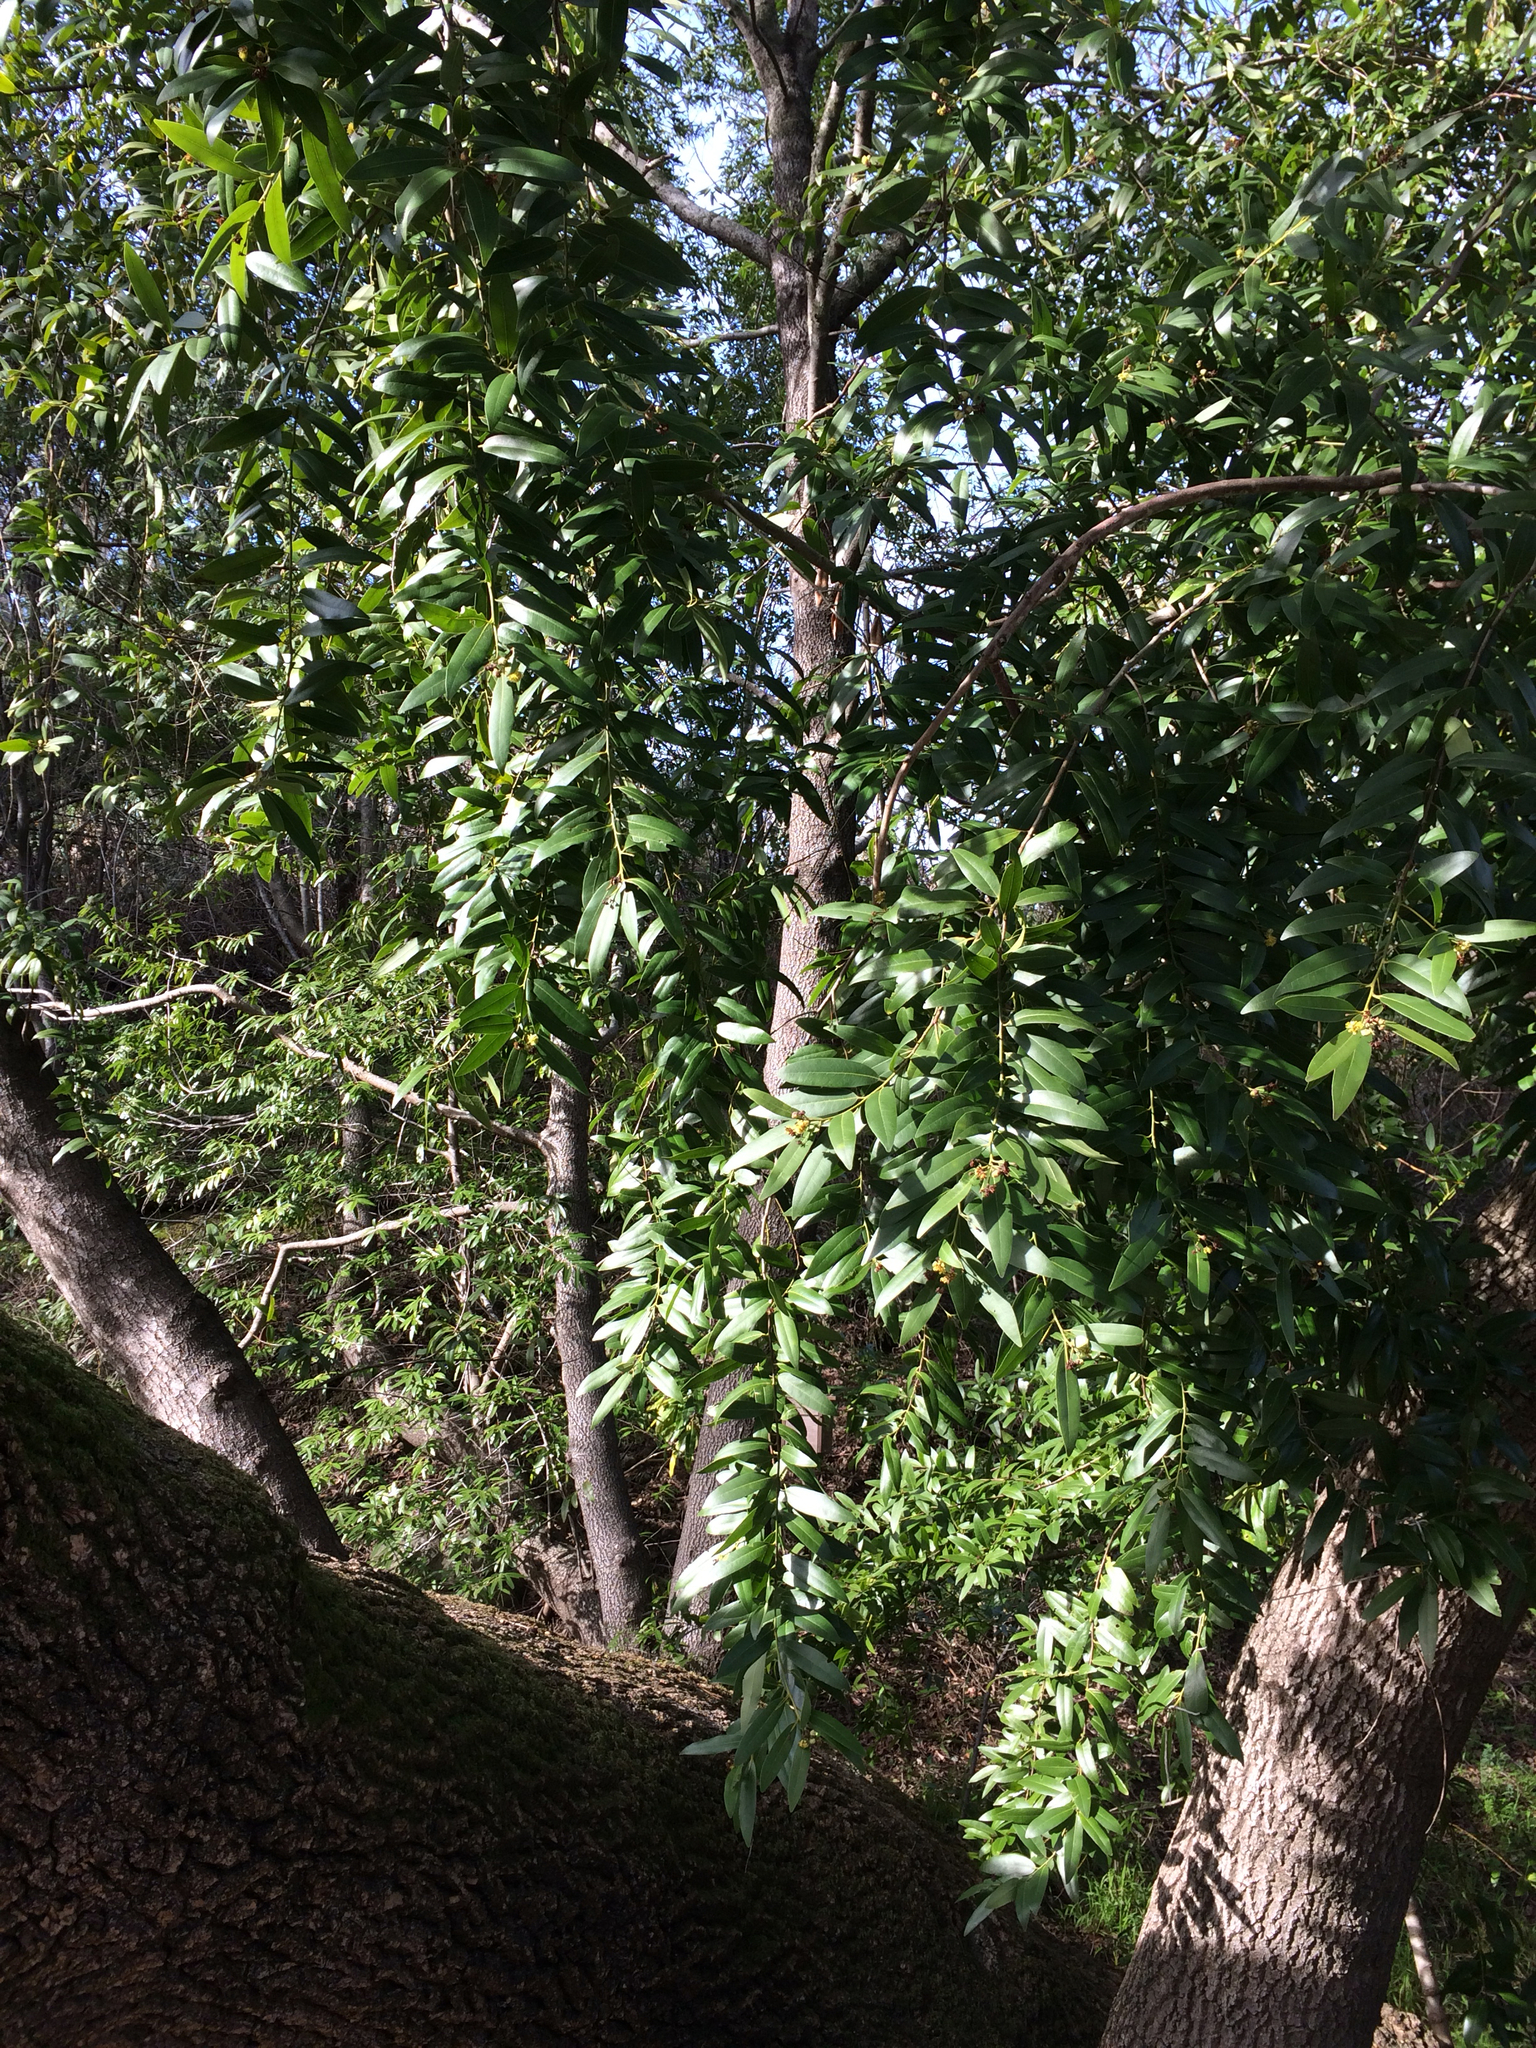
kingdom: Plantae
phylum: Tracheophyta
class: Magnoliopsida
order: Laurales
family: Lauraceae
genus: Umbellularia
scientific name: Umbellularia californica
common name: California bay
